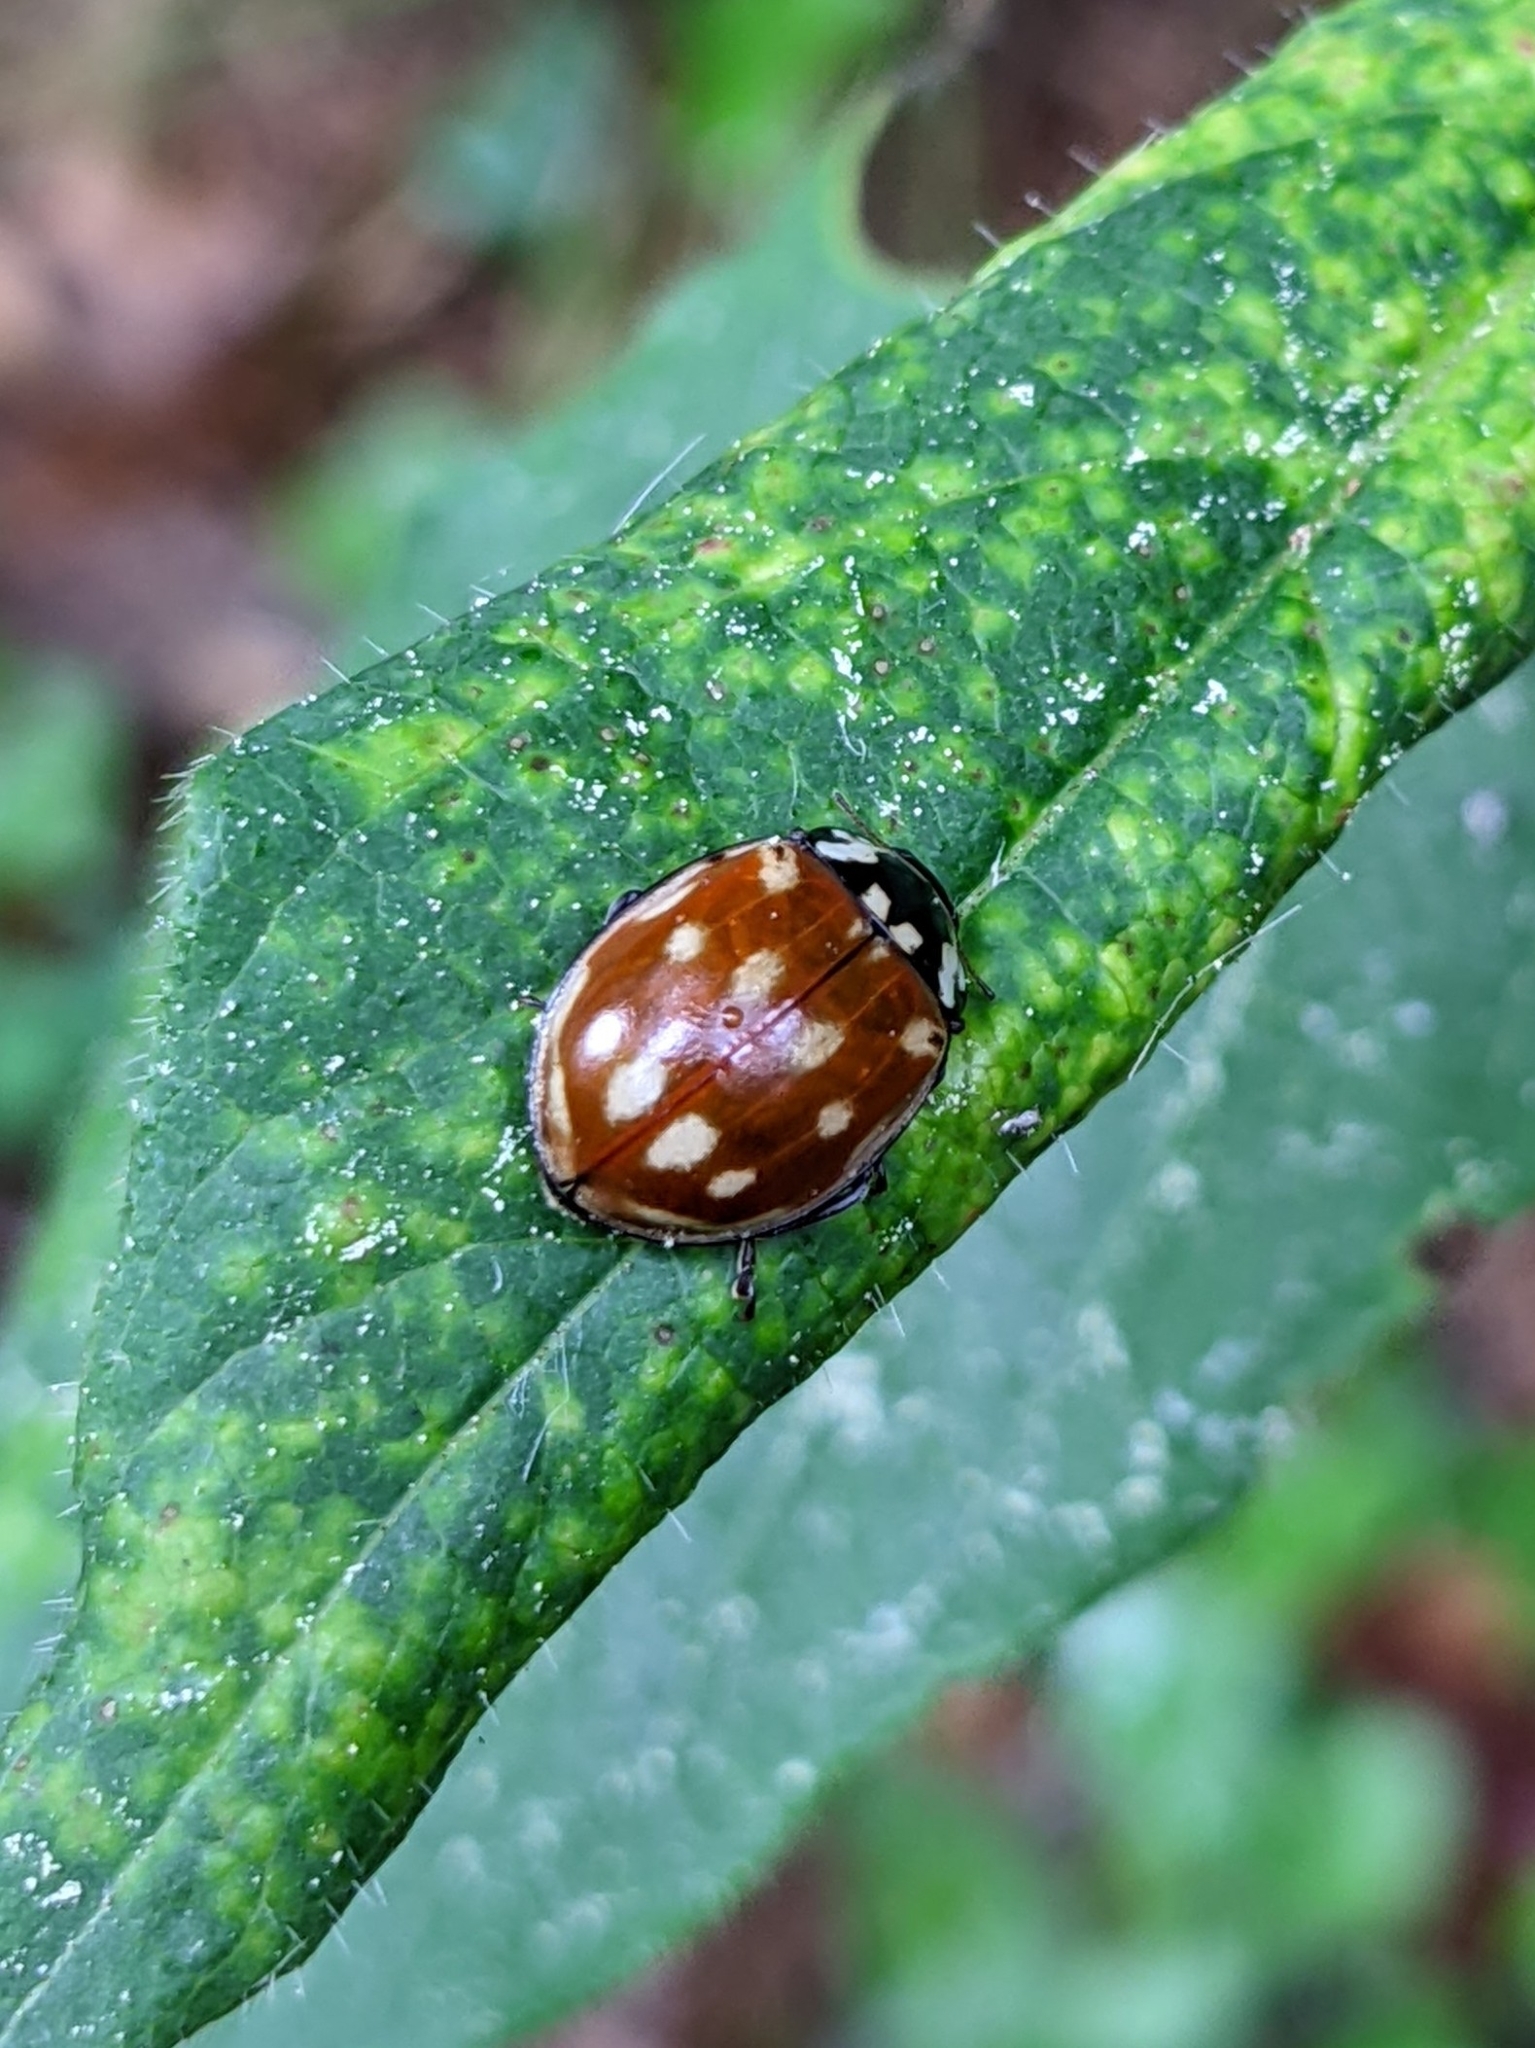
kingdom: Animalia
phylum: Arthropoda
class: Insecta
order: Coleoptera
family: Coccinellidae
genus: Anatis
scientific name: Anatis ocellata
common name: Eyed ladybird
